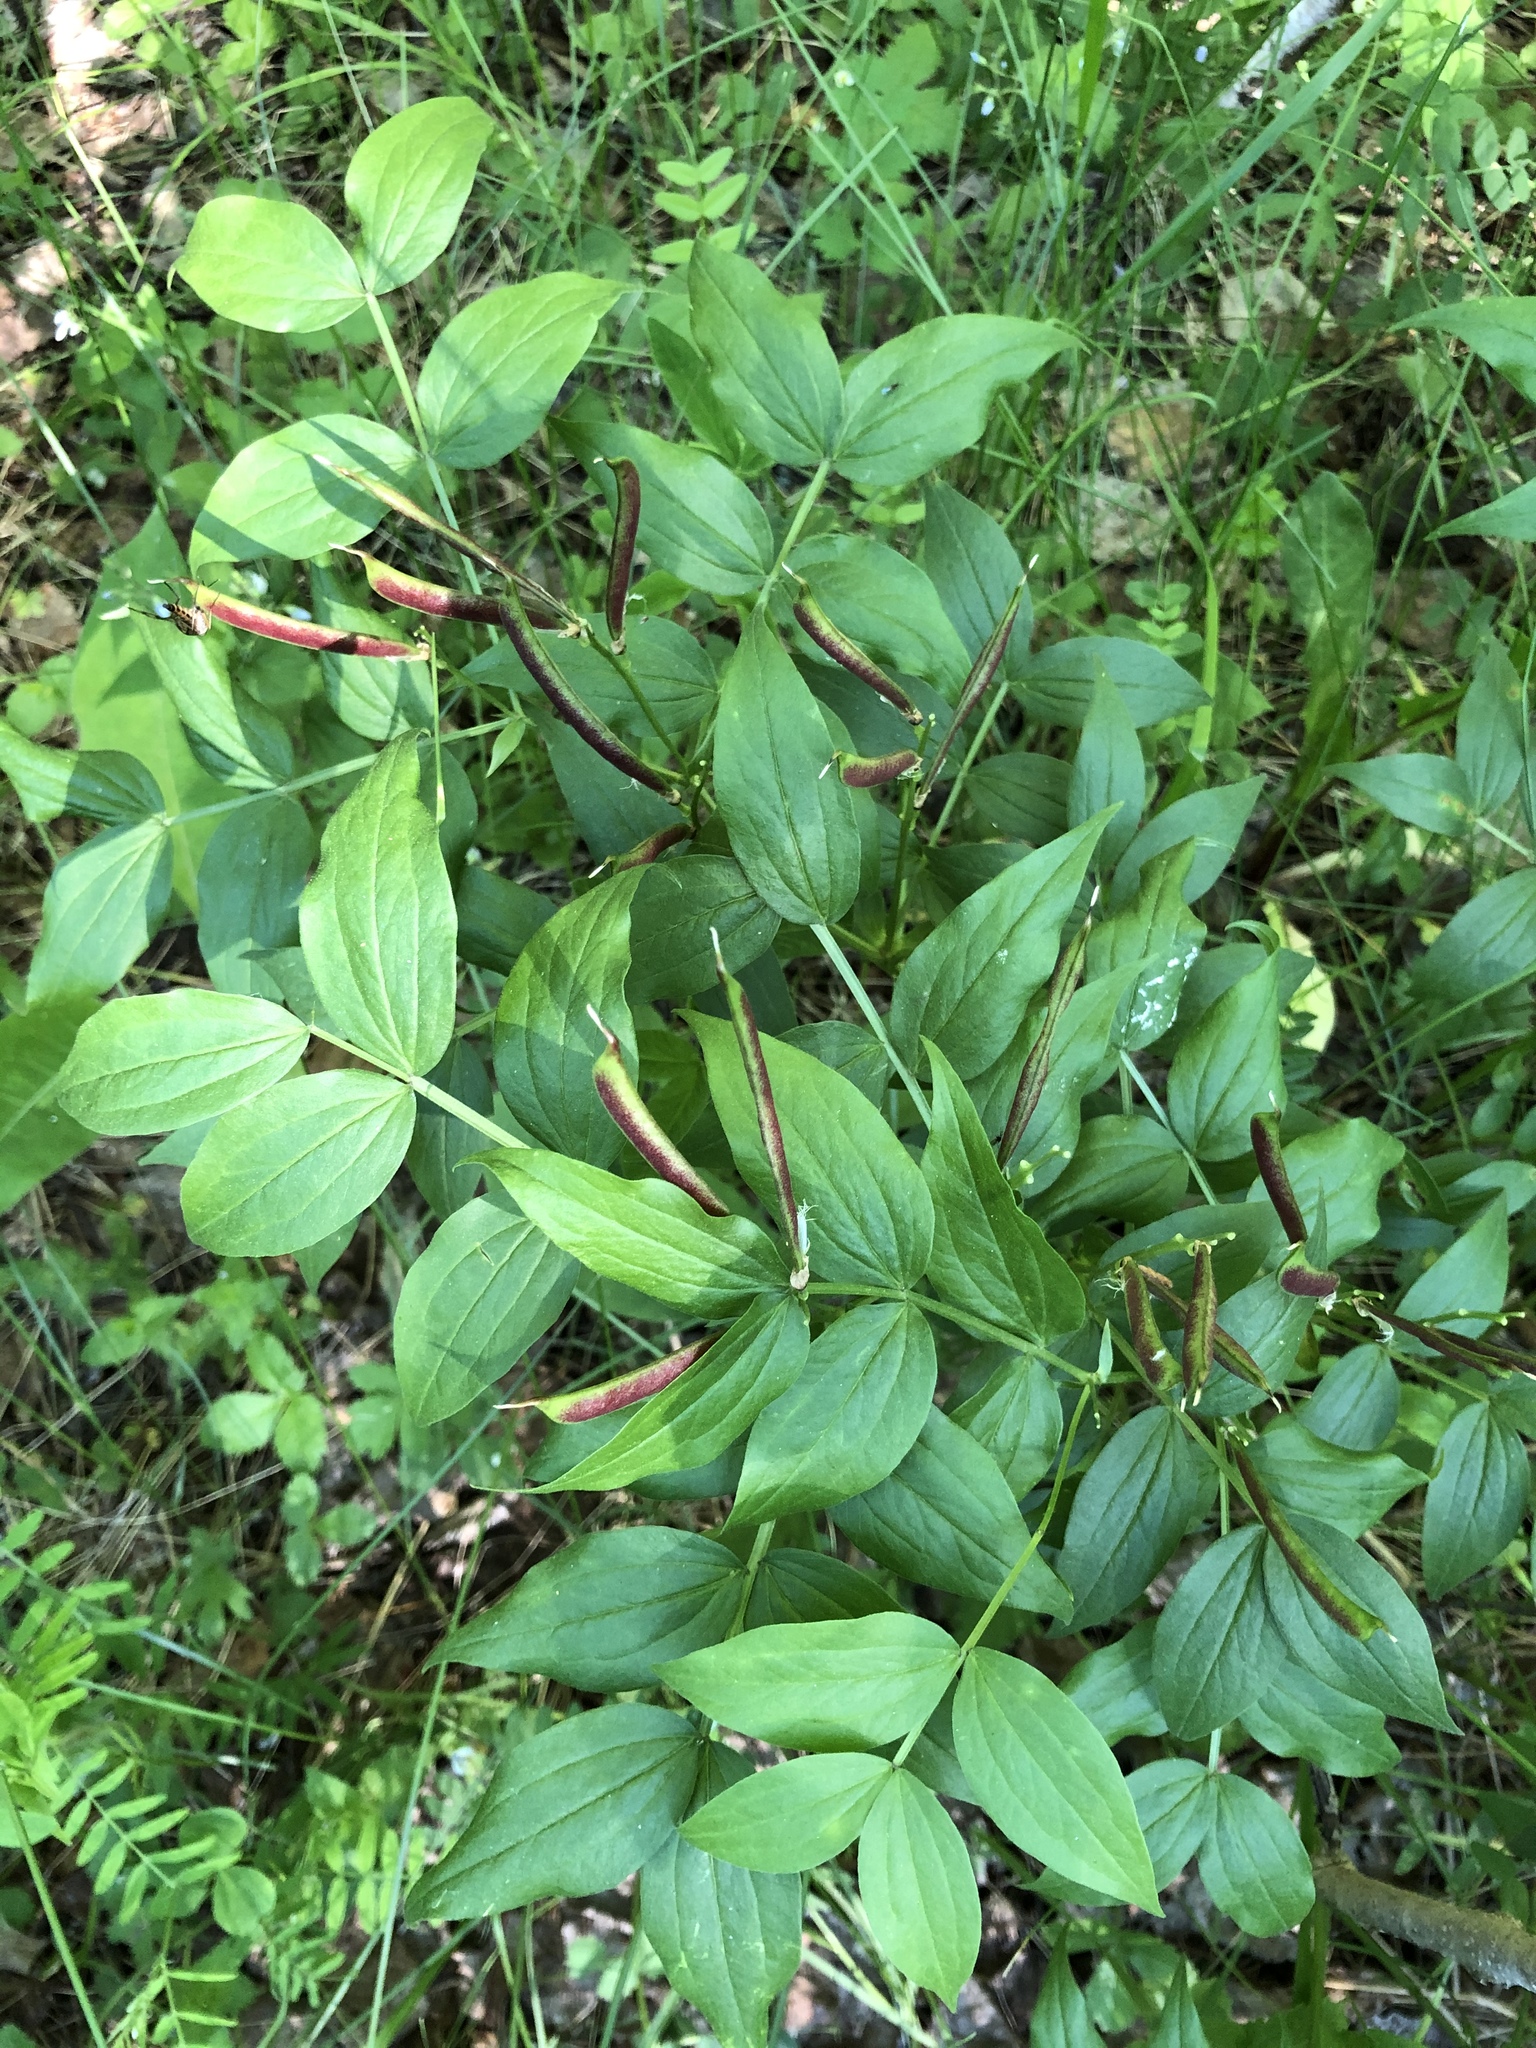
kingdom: Plantae
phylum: Tracheophyta
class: Magnoliopsida
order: Fabales
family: Fabaceae
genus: Lathyrus
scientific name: Lathyrus vernus
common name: Spring pea
